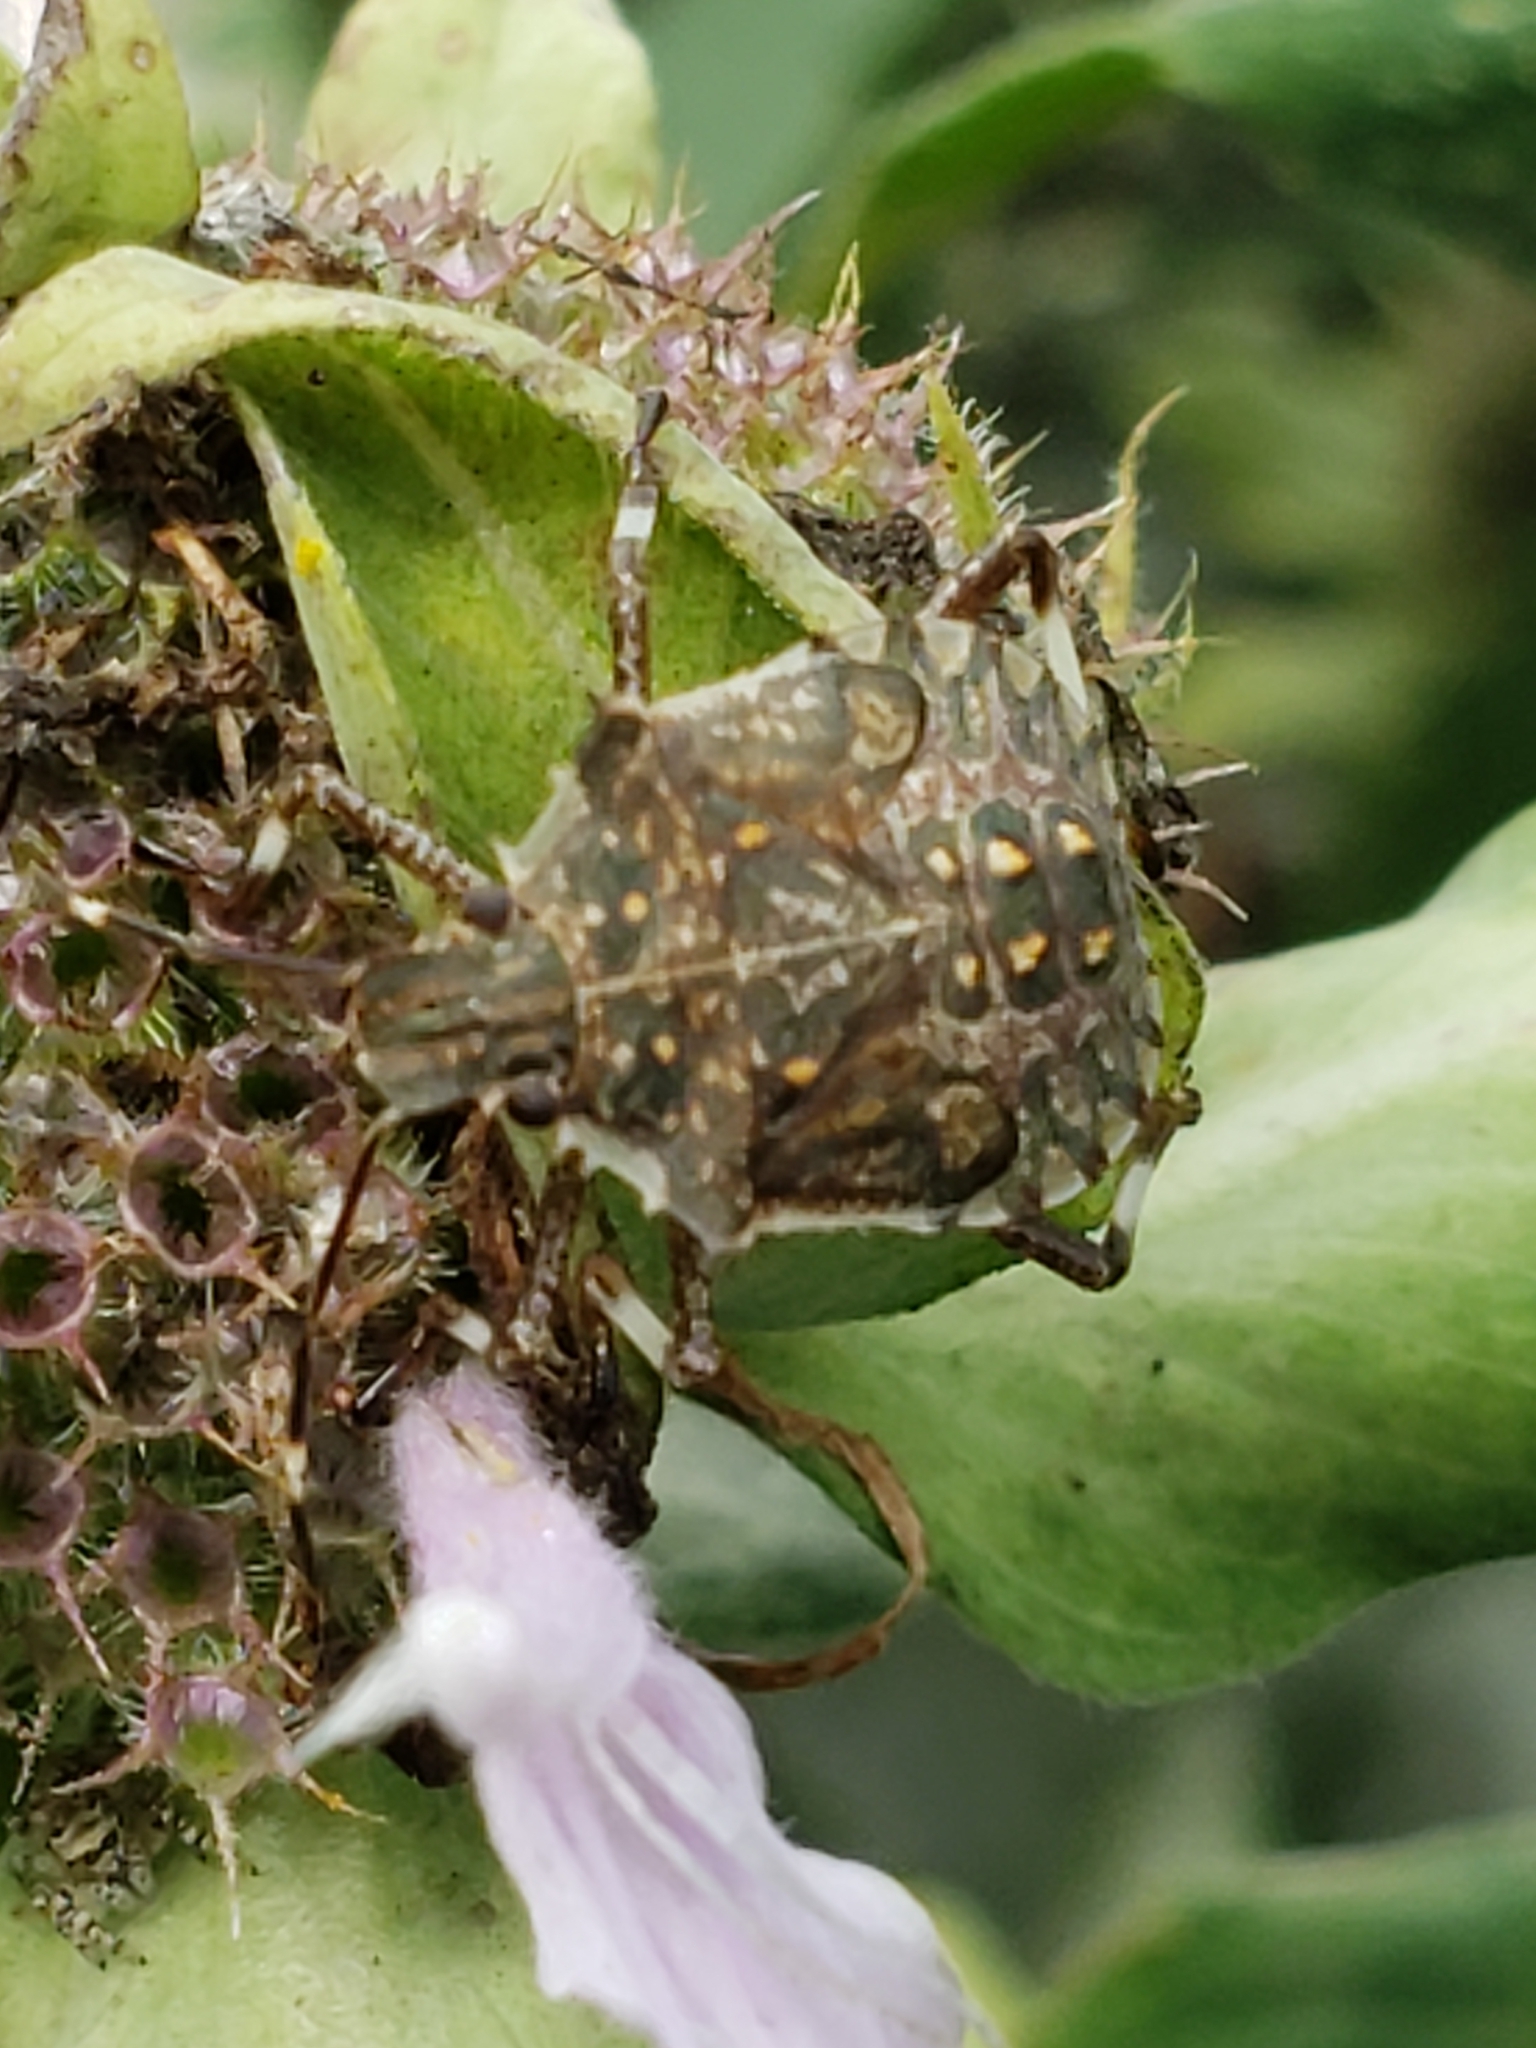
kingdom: Animalia
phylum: Arthropoda
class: Insecta
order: Hemiptera
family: Pentatomidae
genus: Halyomorpha
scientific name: Halyomorpha halys
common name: Brown marmorated stink bug
